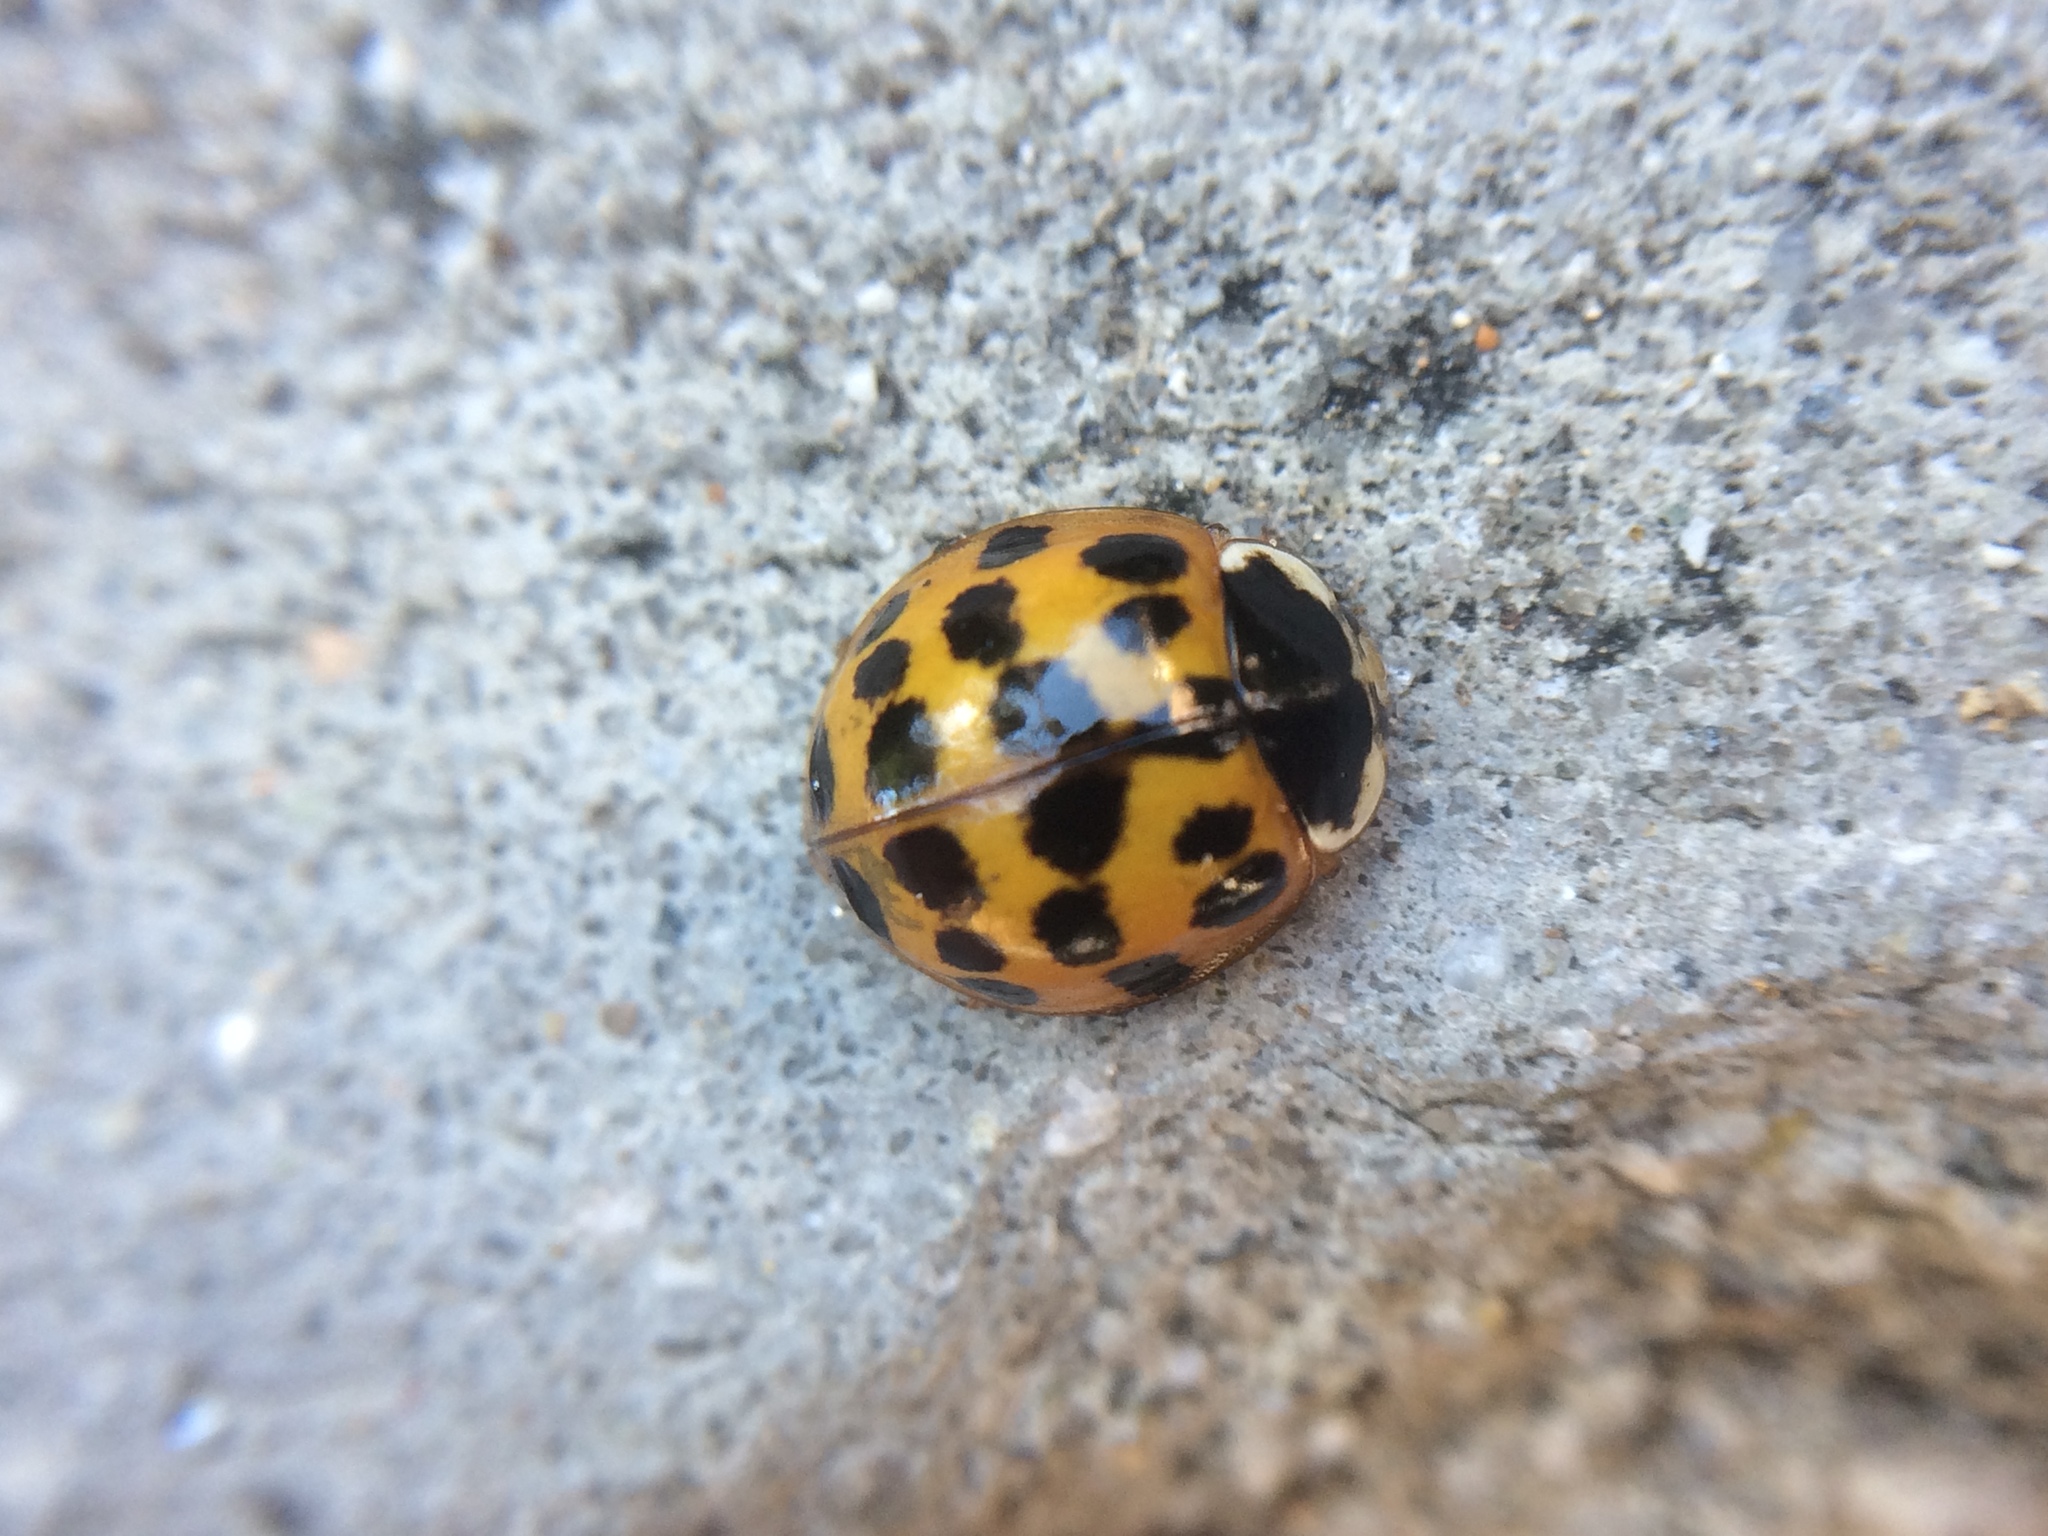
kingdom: Animalia
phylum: Arthropoda
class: Insecta
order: Coleoptera
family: Coccinellidae
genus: Harmonia
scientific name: Harmonia axyridis
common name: Harlequin ladybird
